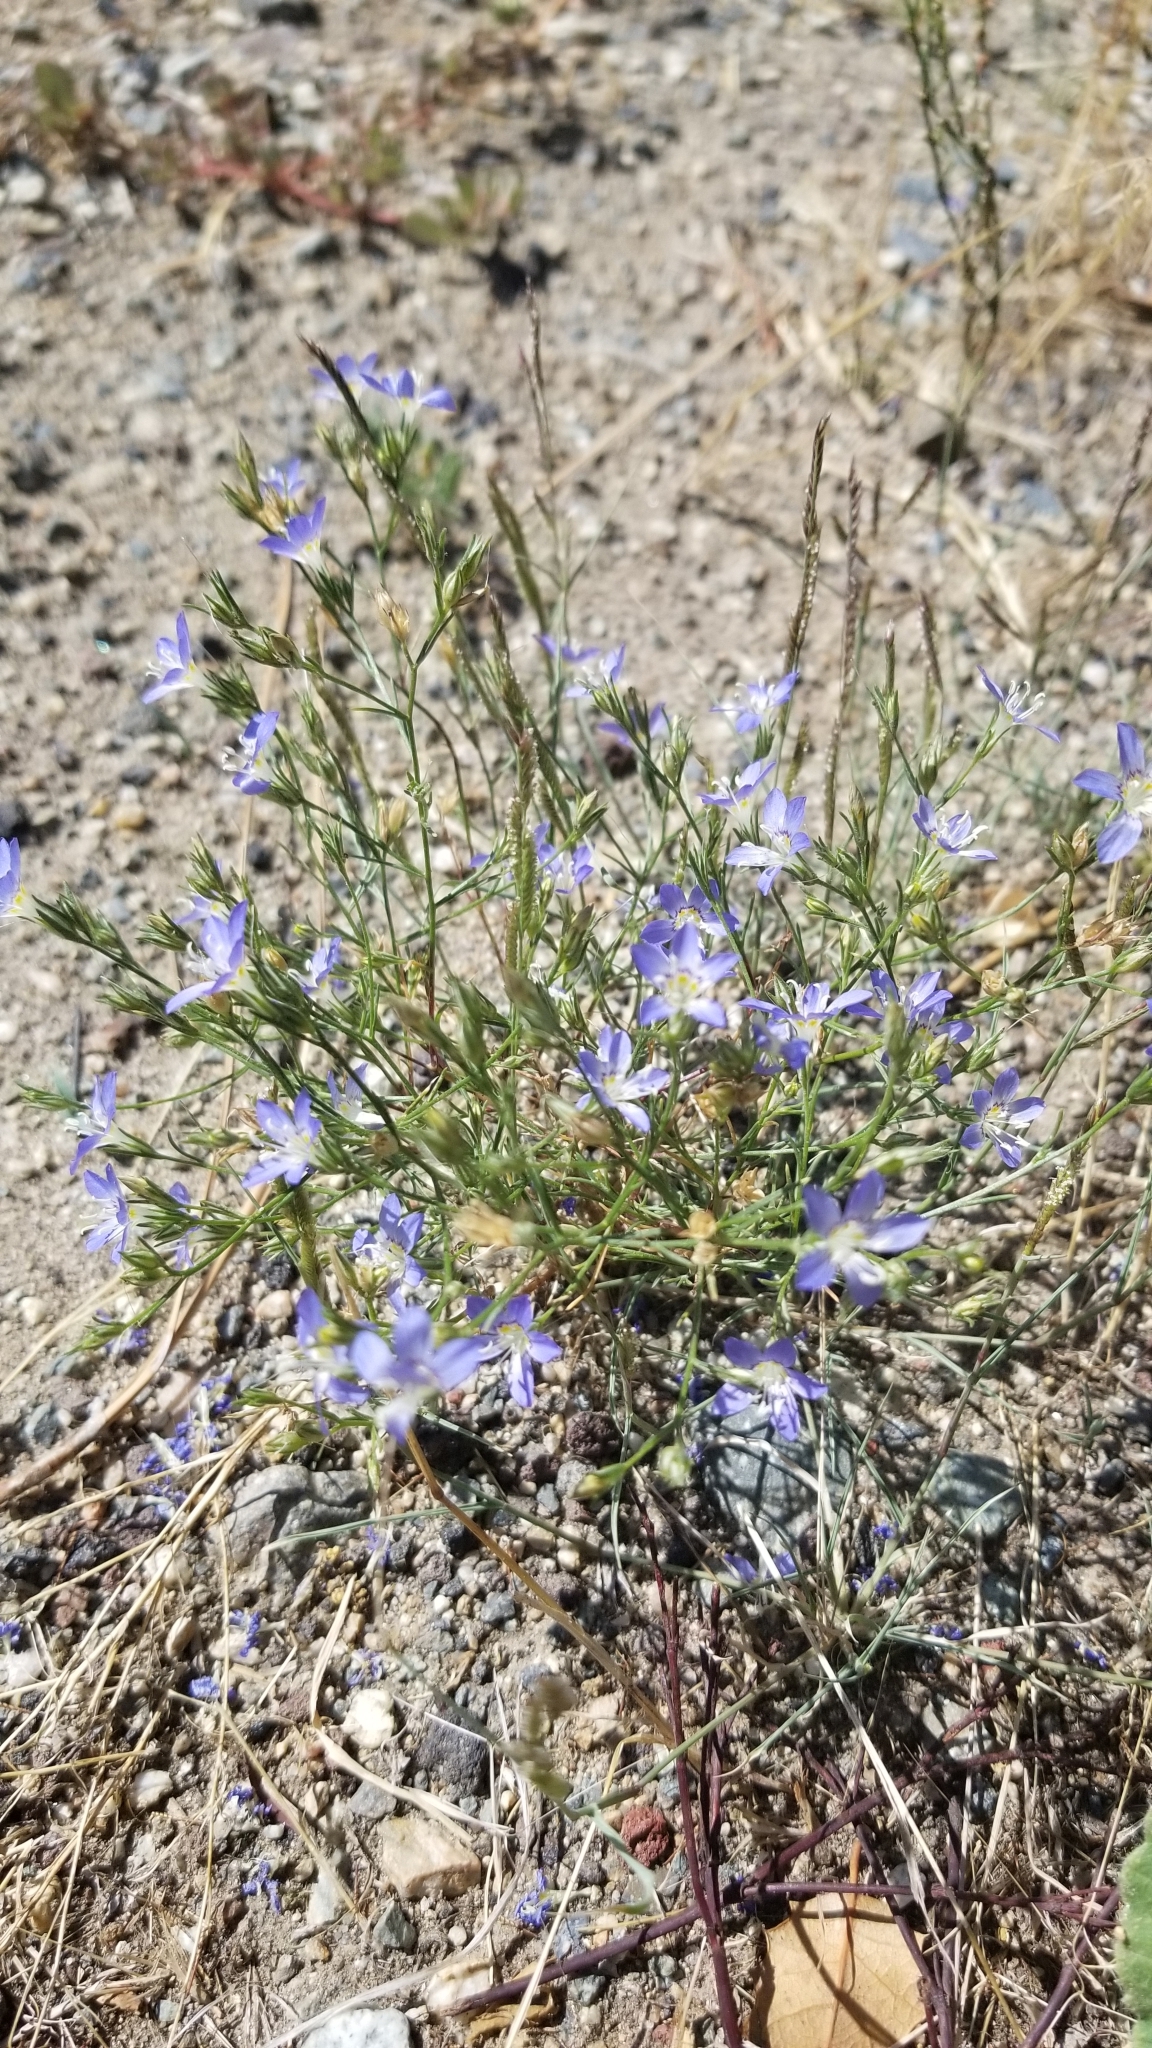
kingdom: Plantae
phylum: Tracheophyta
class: Magnoliopsida
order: Ericales
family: Polemoniaceae
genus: Eriastrum
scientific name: Eriastrum sapphirinum
